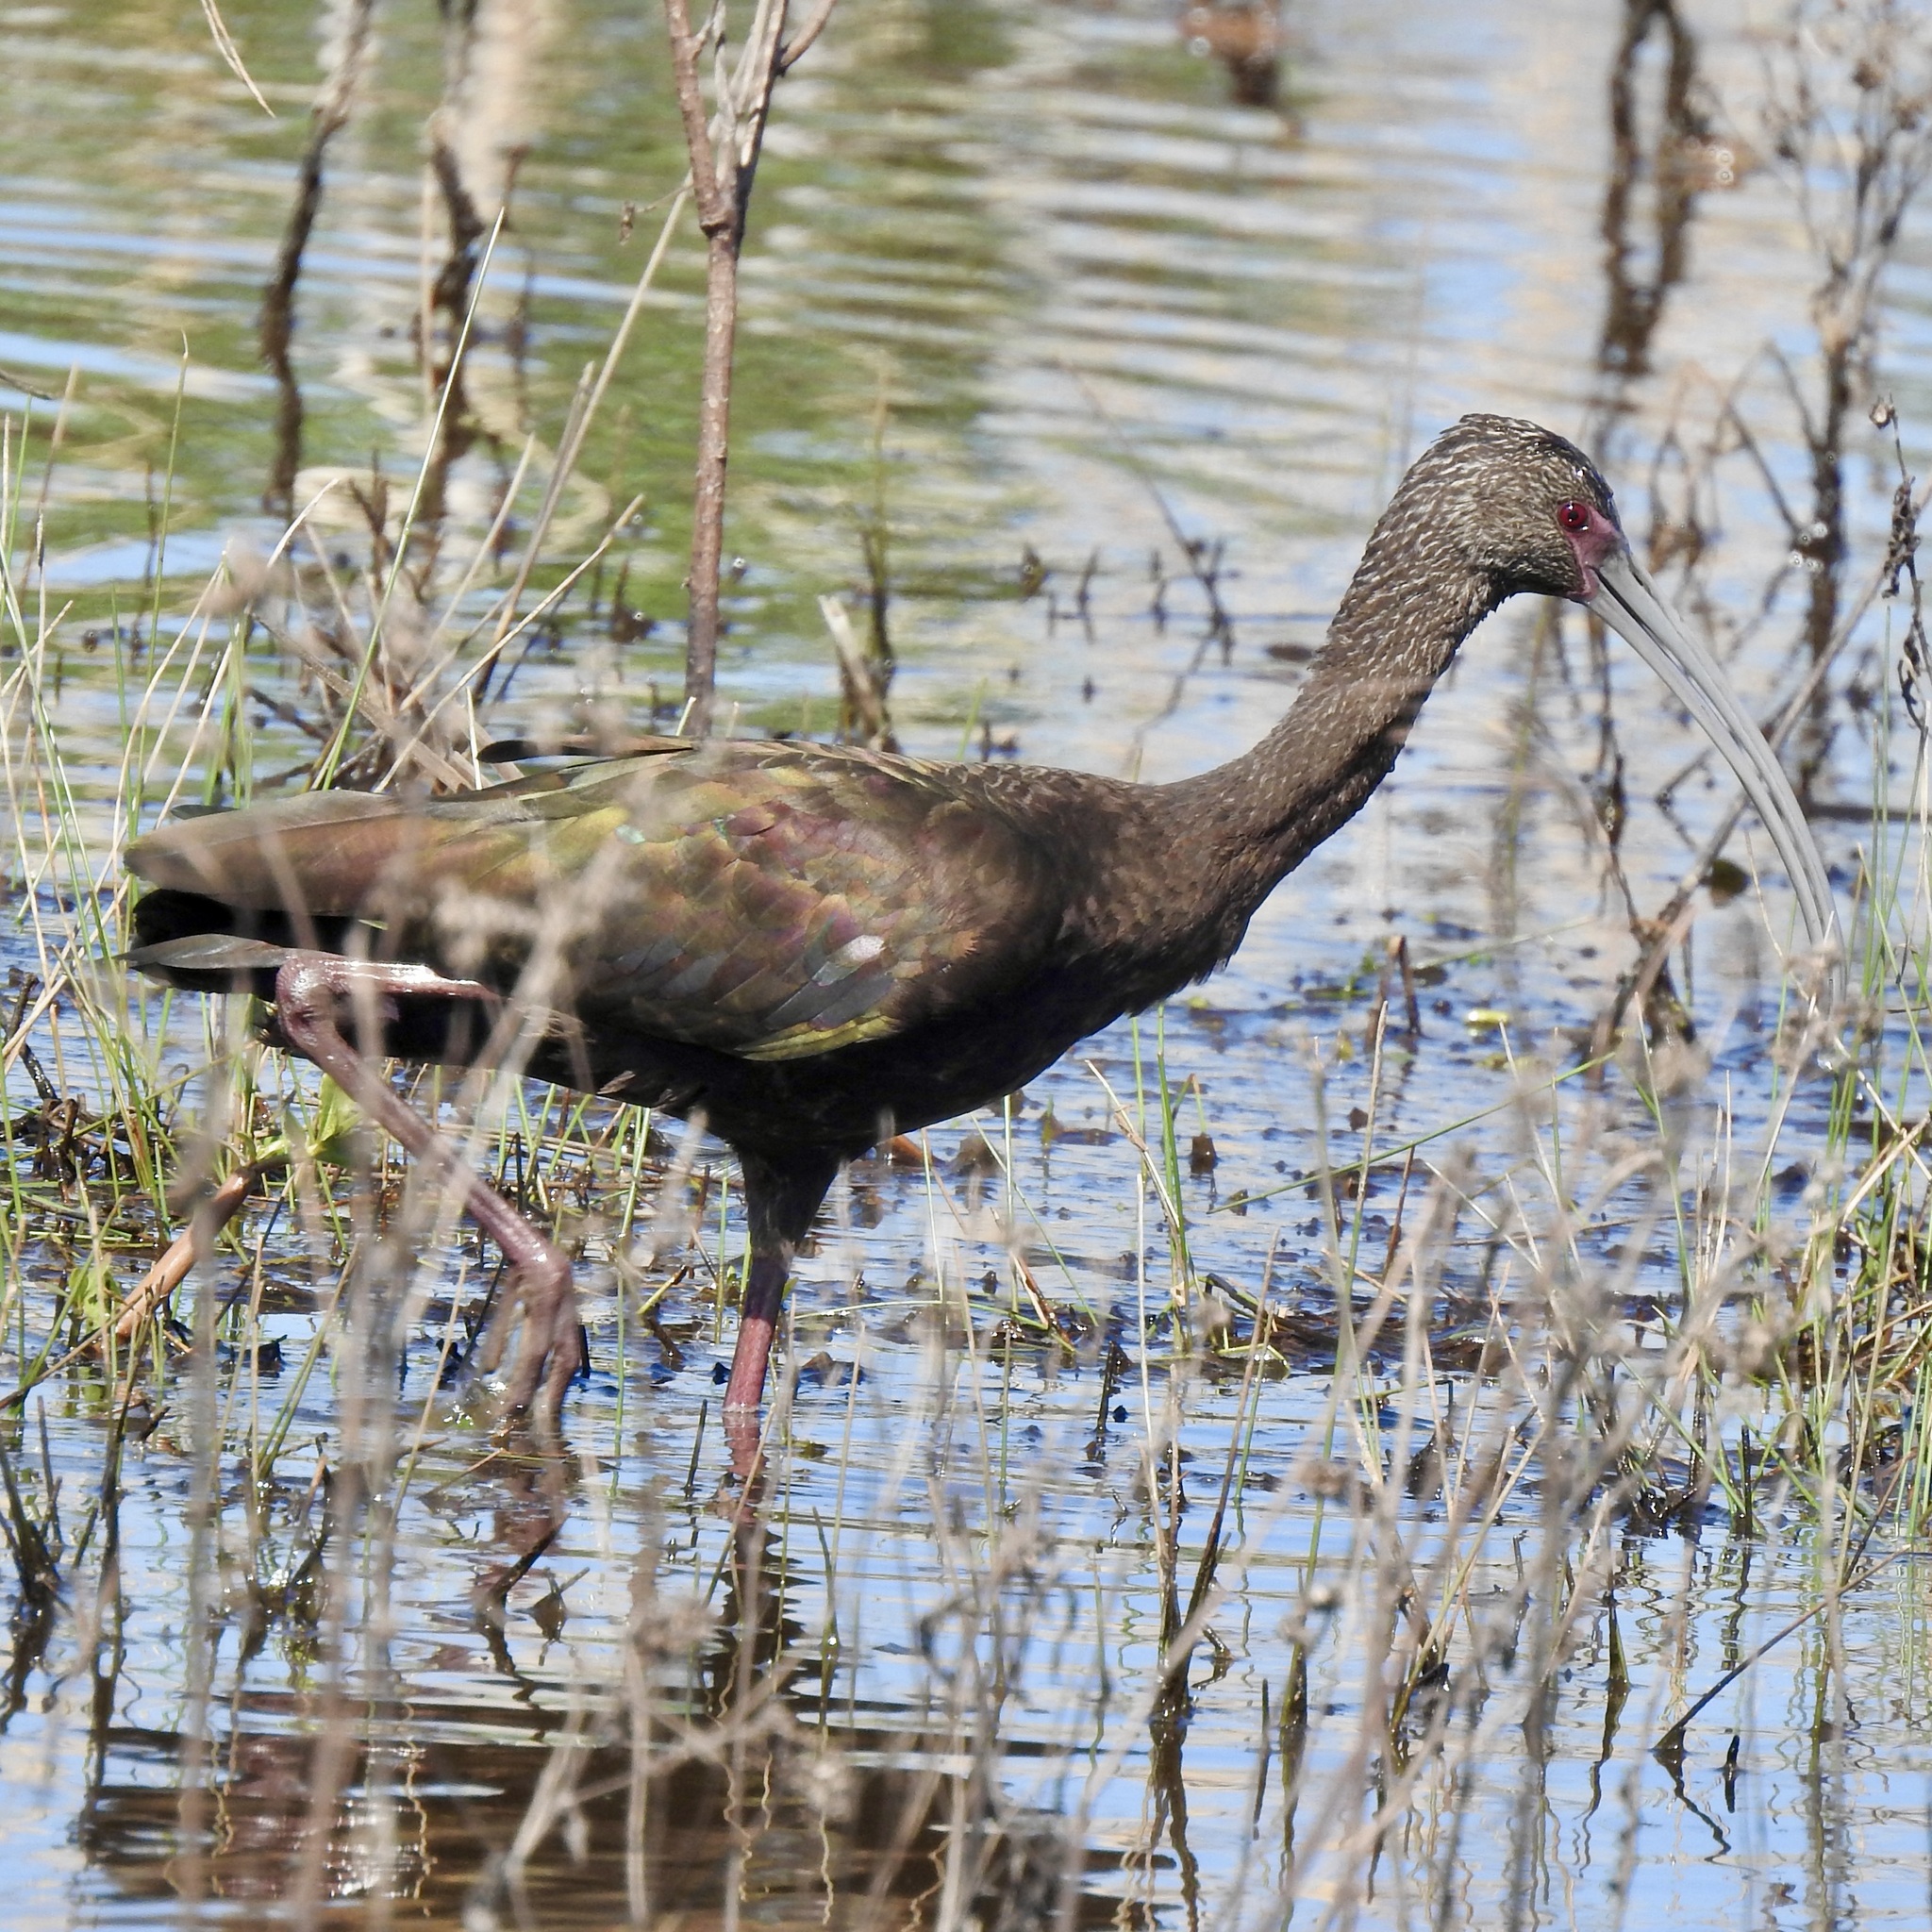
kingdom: Animalia
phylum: Chordata
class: Aves
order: Pelecaniformes
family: Threskiornithidae
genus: Plegadis
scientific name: Plegadis chihi
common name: White-faced ibis
